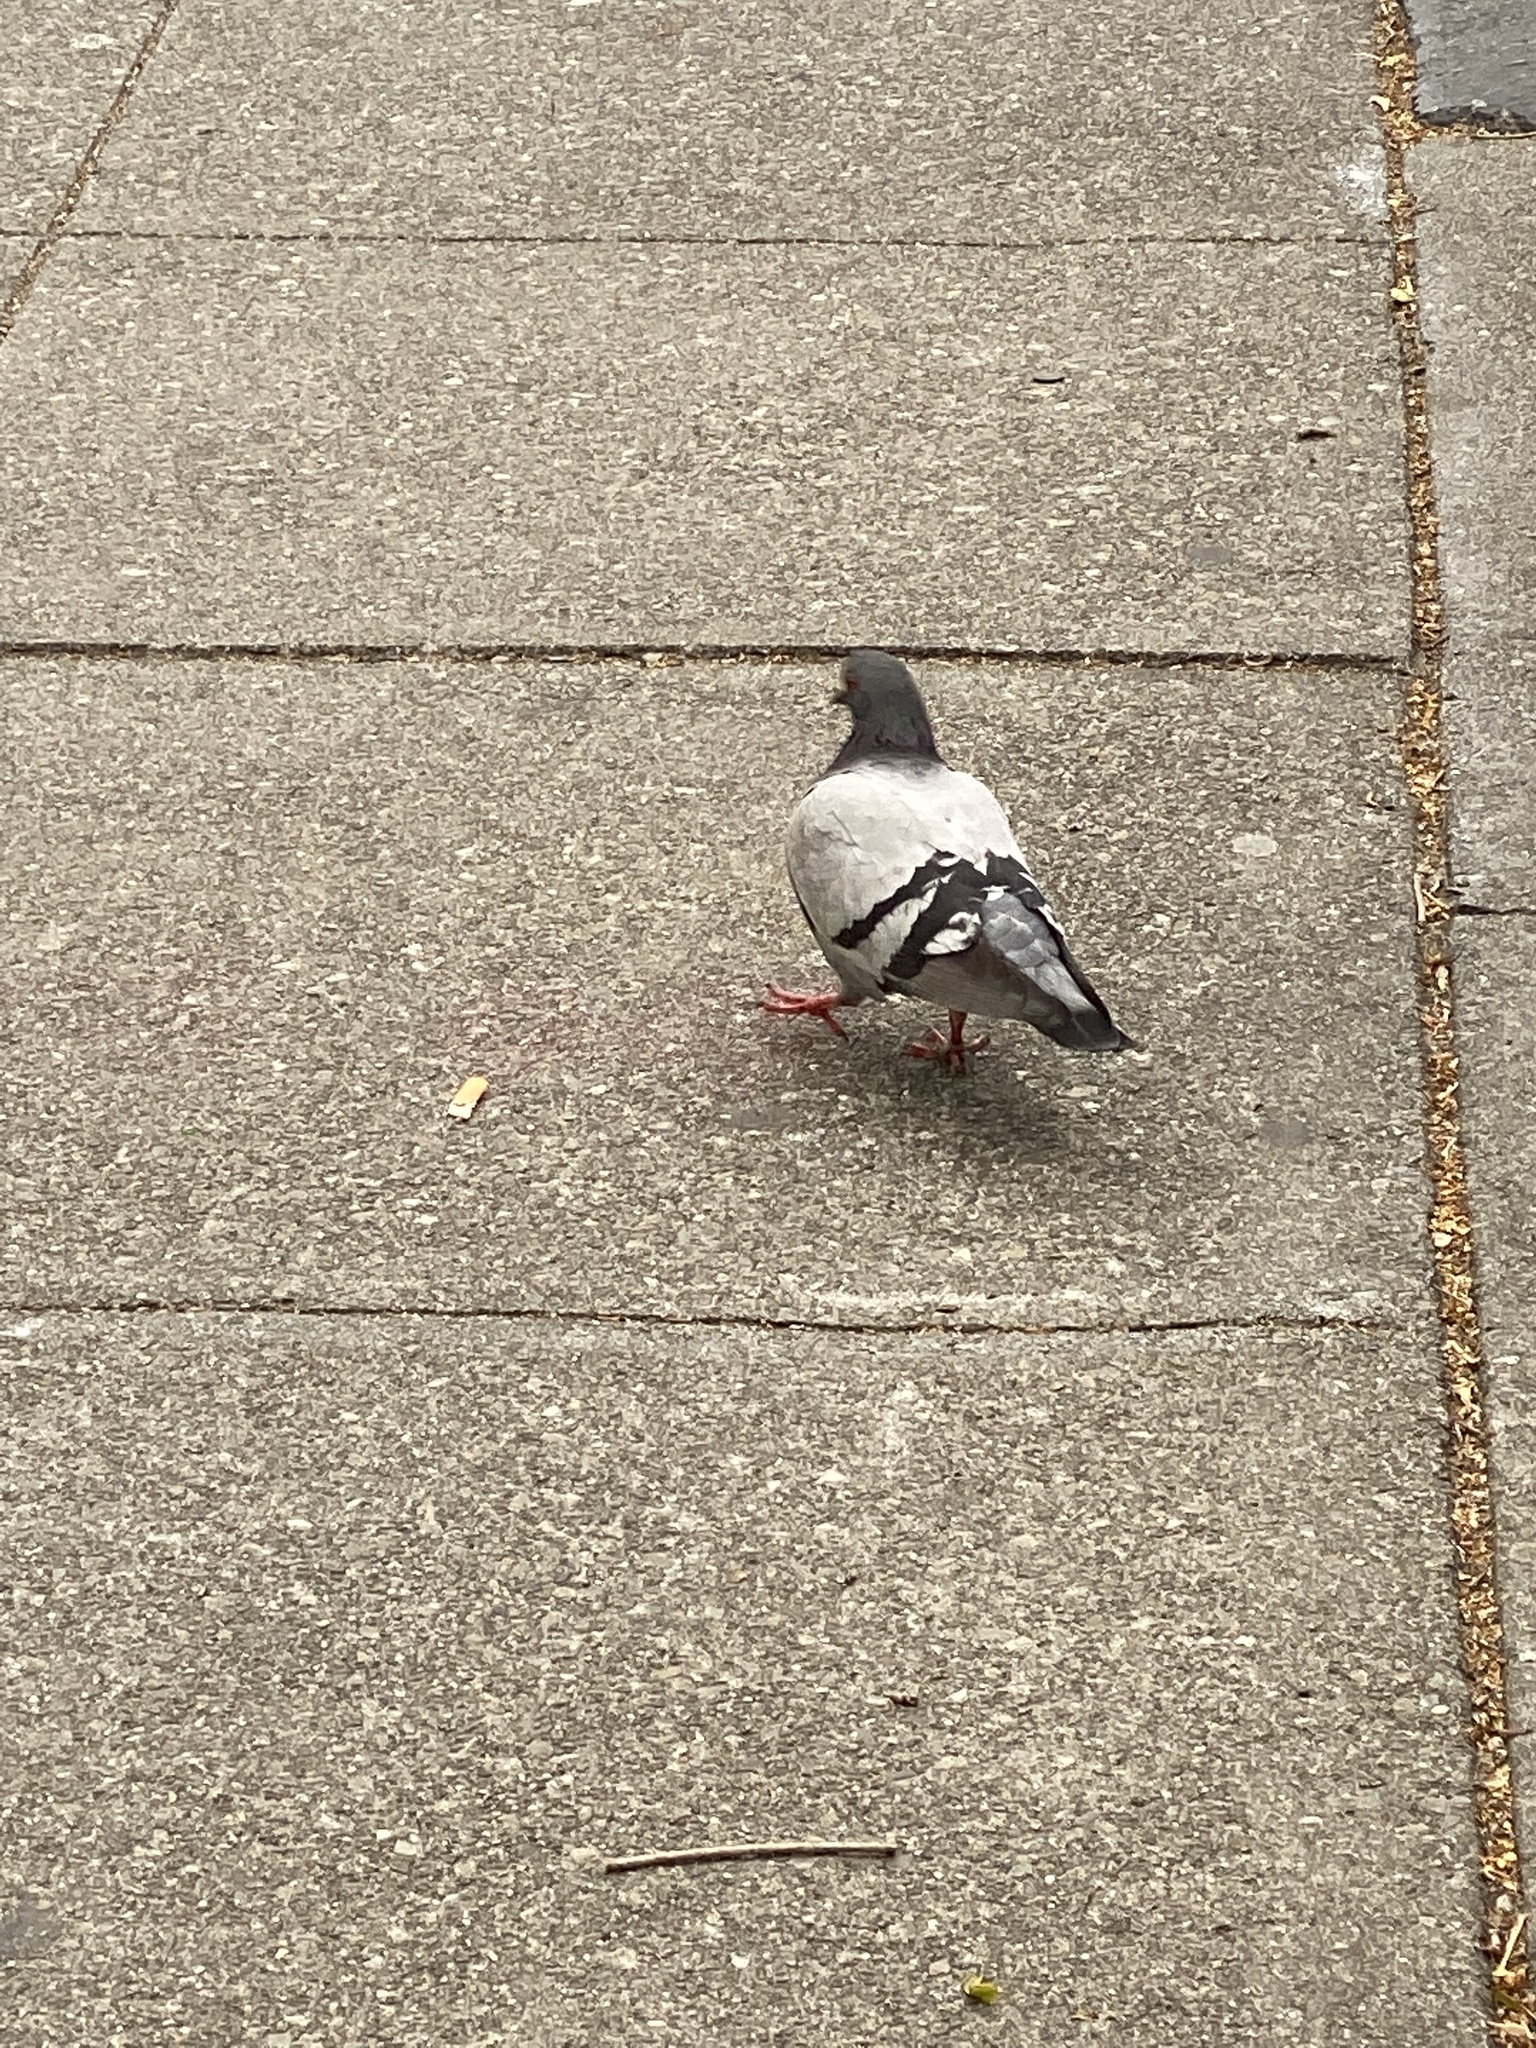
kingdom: Animalia
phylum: Chordata
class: Aves
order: Columbiformes
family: Columbidae
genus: Columba
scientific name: Columba livia
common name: Rock pigeon
